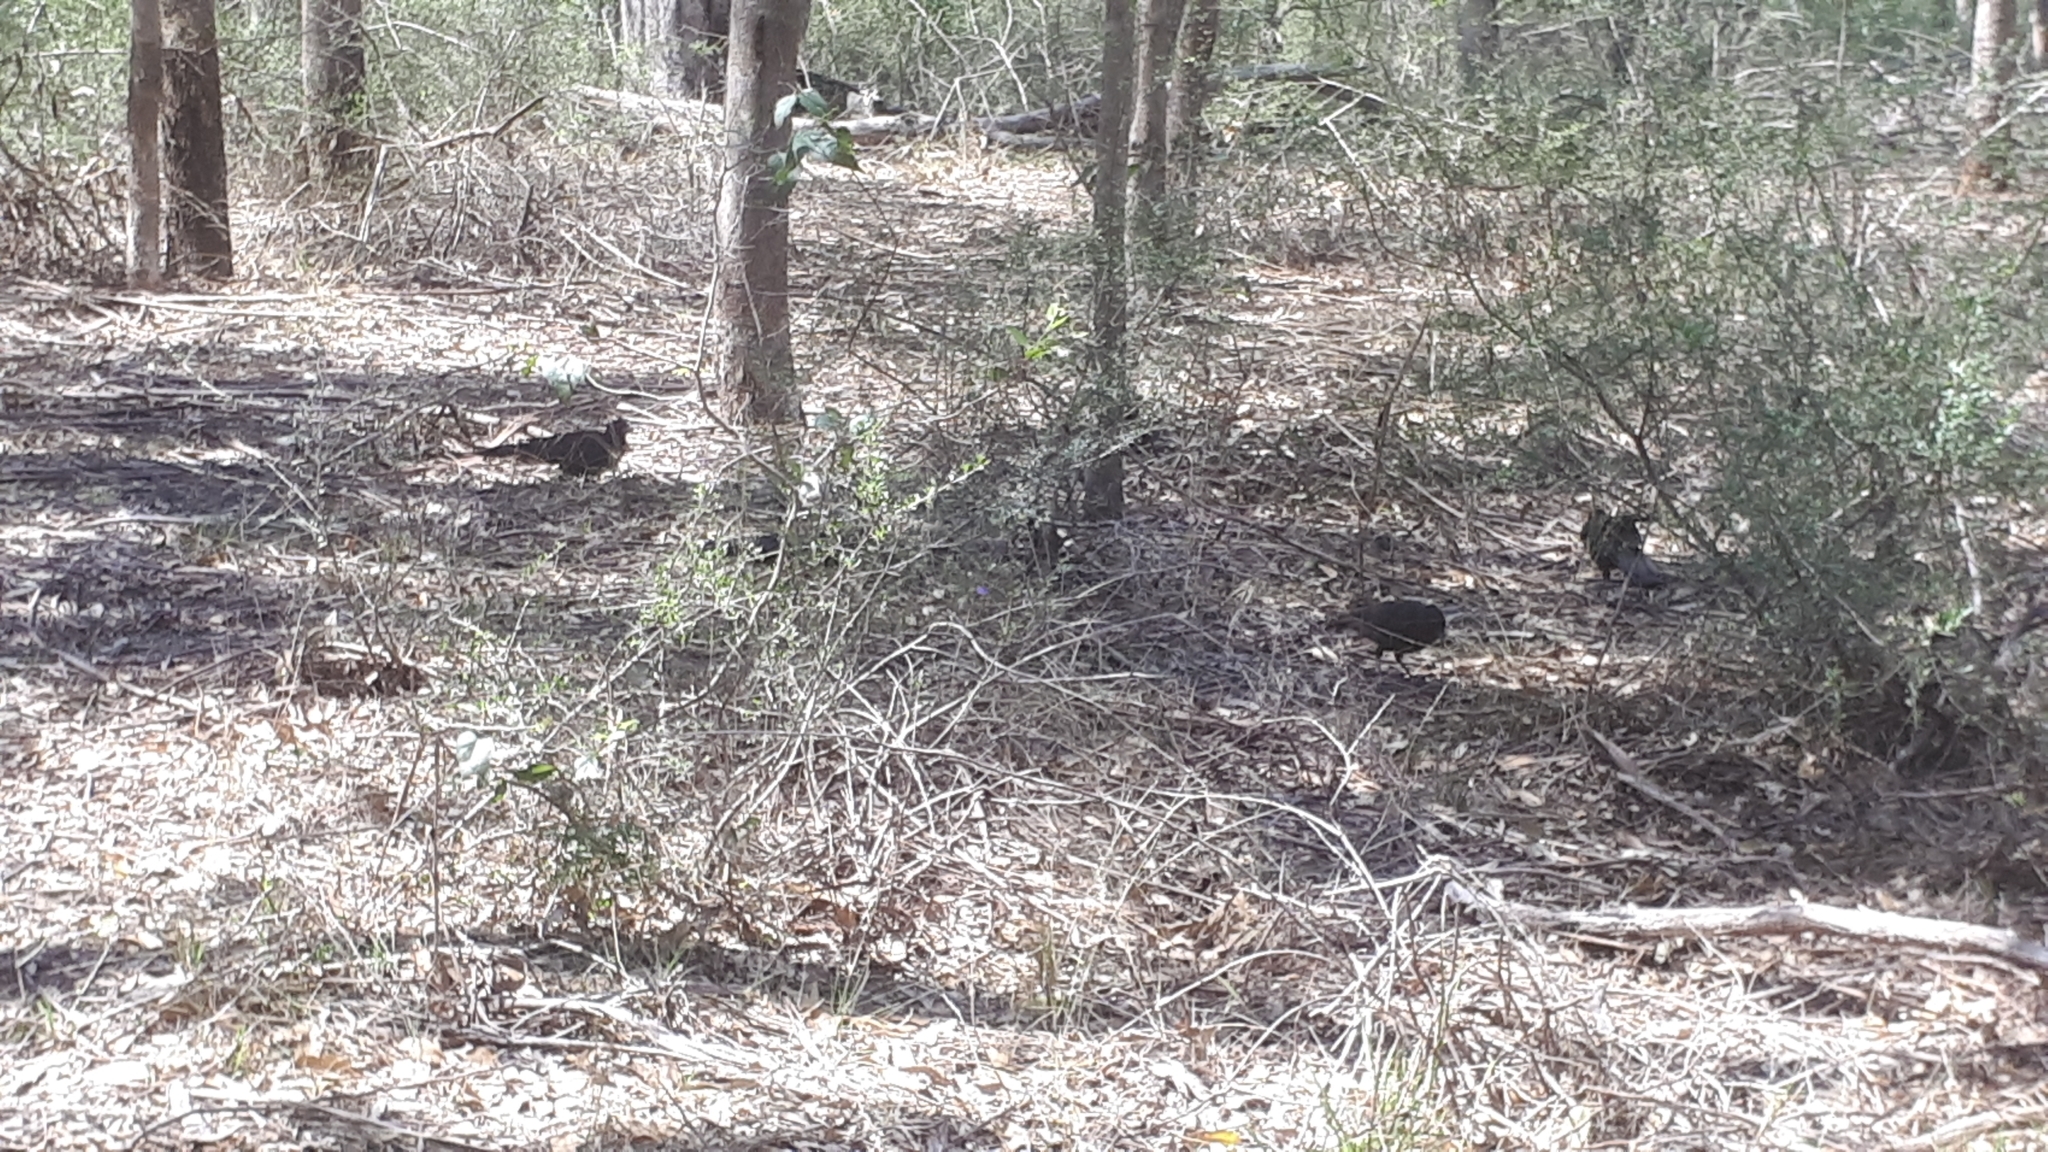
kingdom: Animalia
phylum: Chordata
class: Aves
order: Passeriformes
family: Corcoracidae
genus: Corcorax
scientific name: Corcorax melanoramphos
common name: White-winged chough
